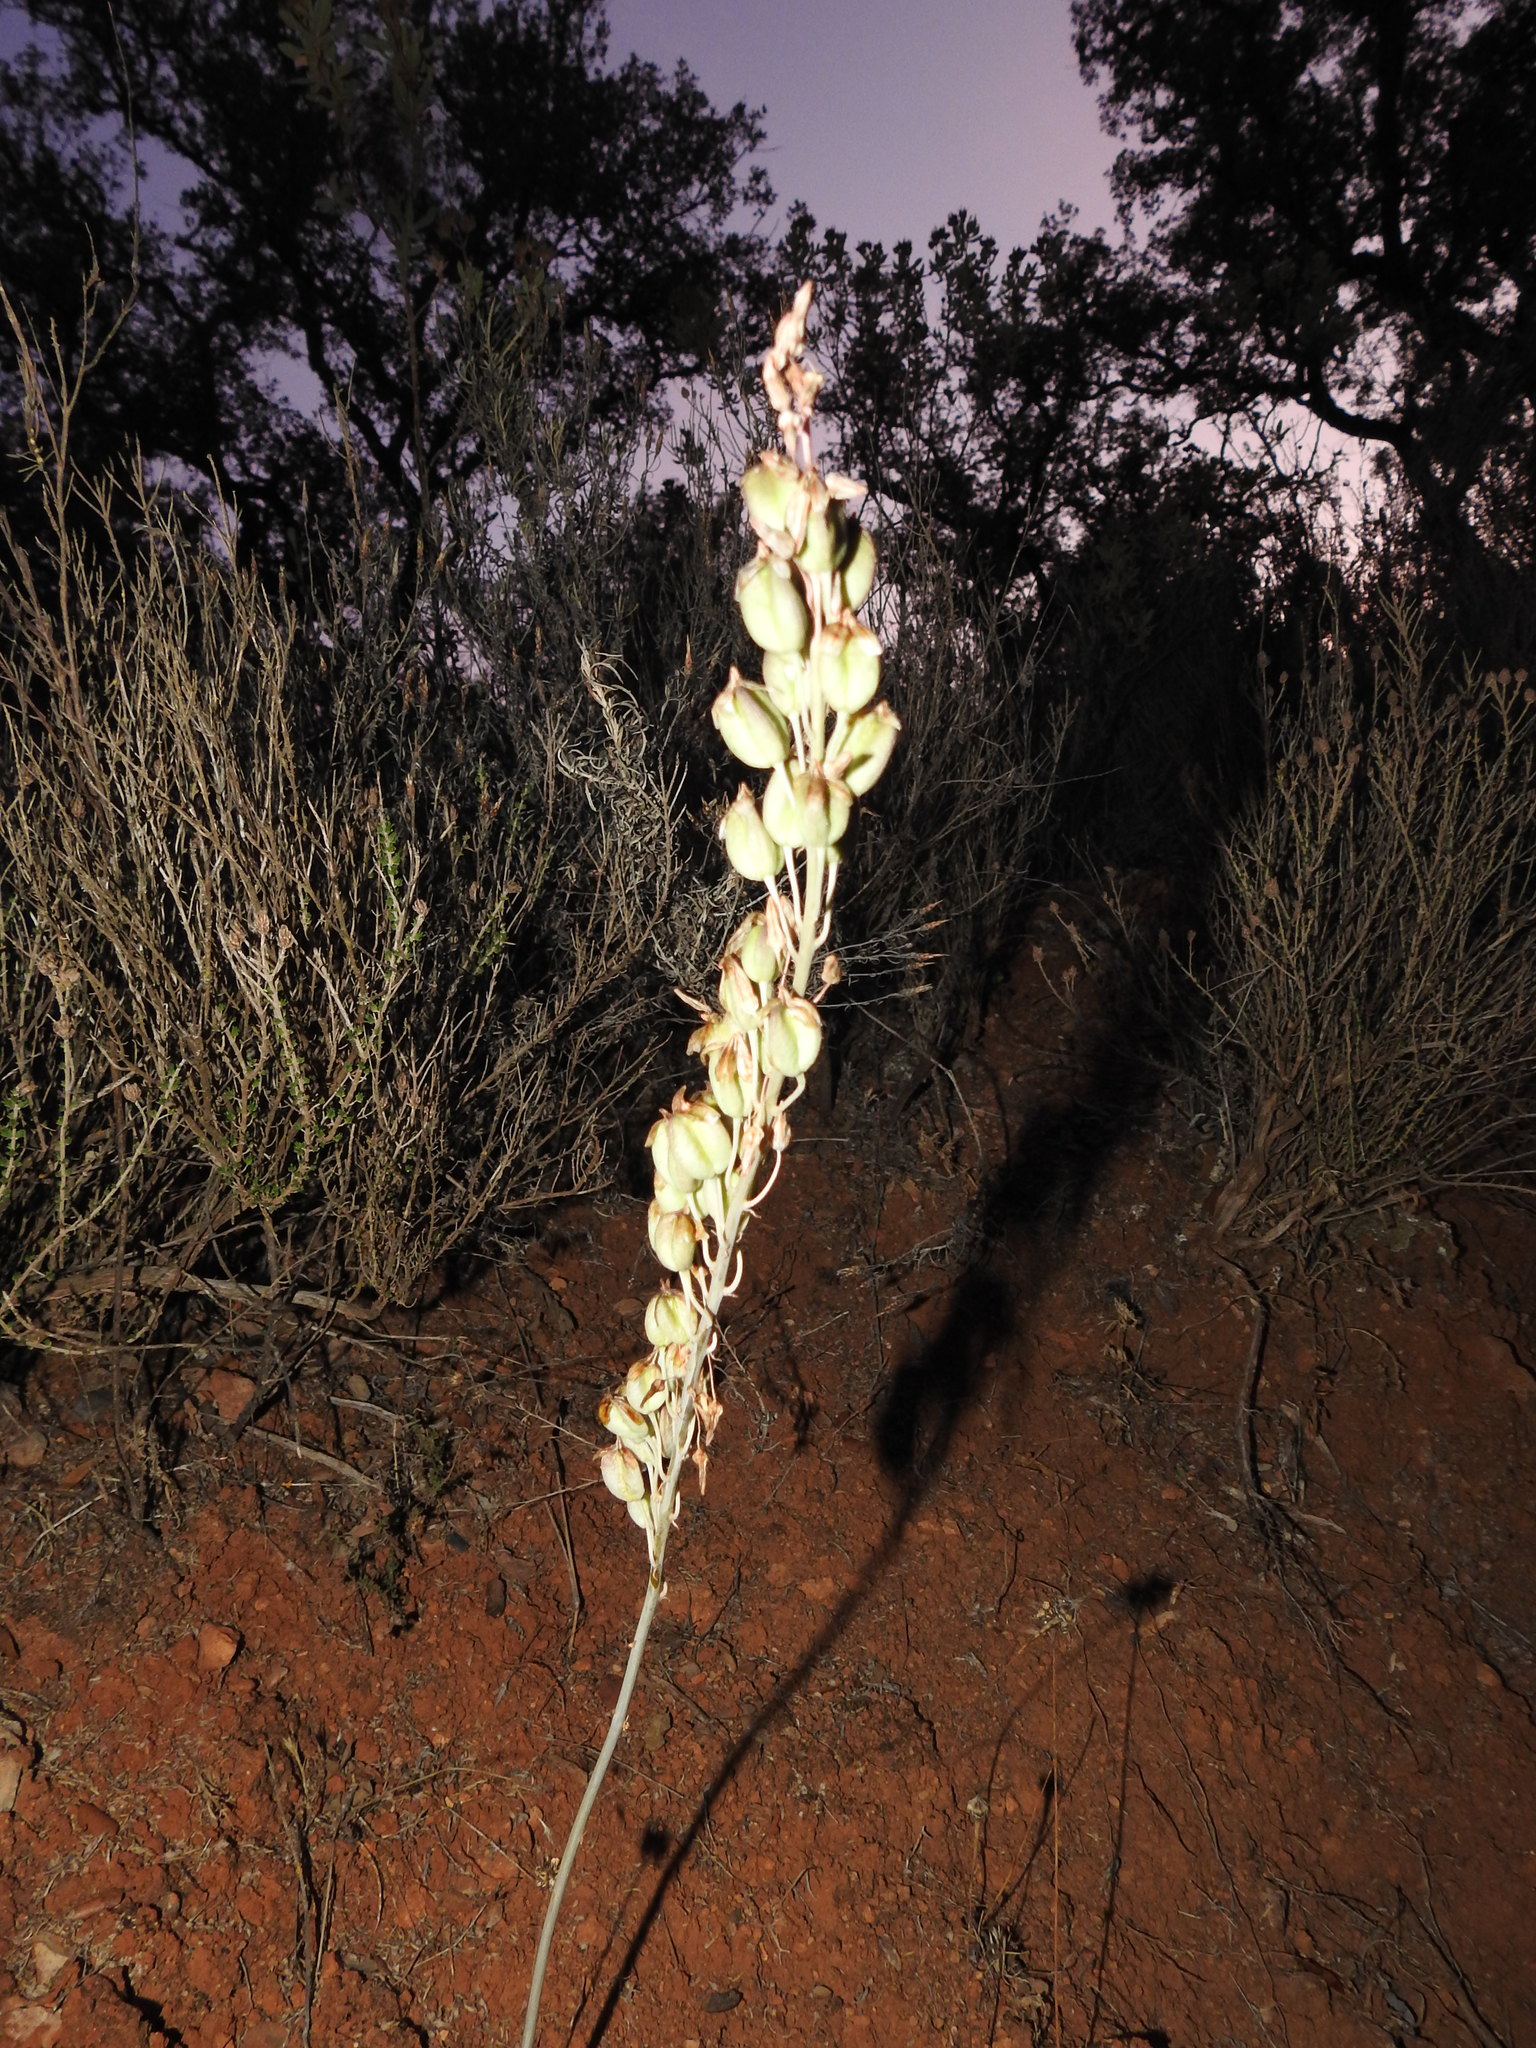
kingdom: Plantae
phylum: Tracheophyta
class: Liliopsida
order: Asparagales
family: Asparagaceae
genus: Drimia
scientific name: Drimia maritima
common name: Maritime squill
